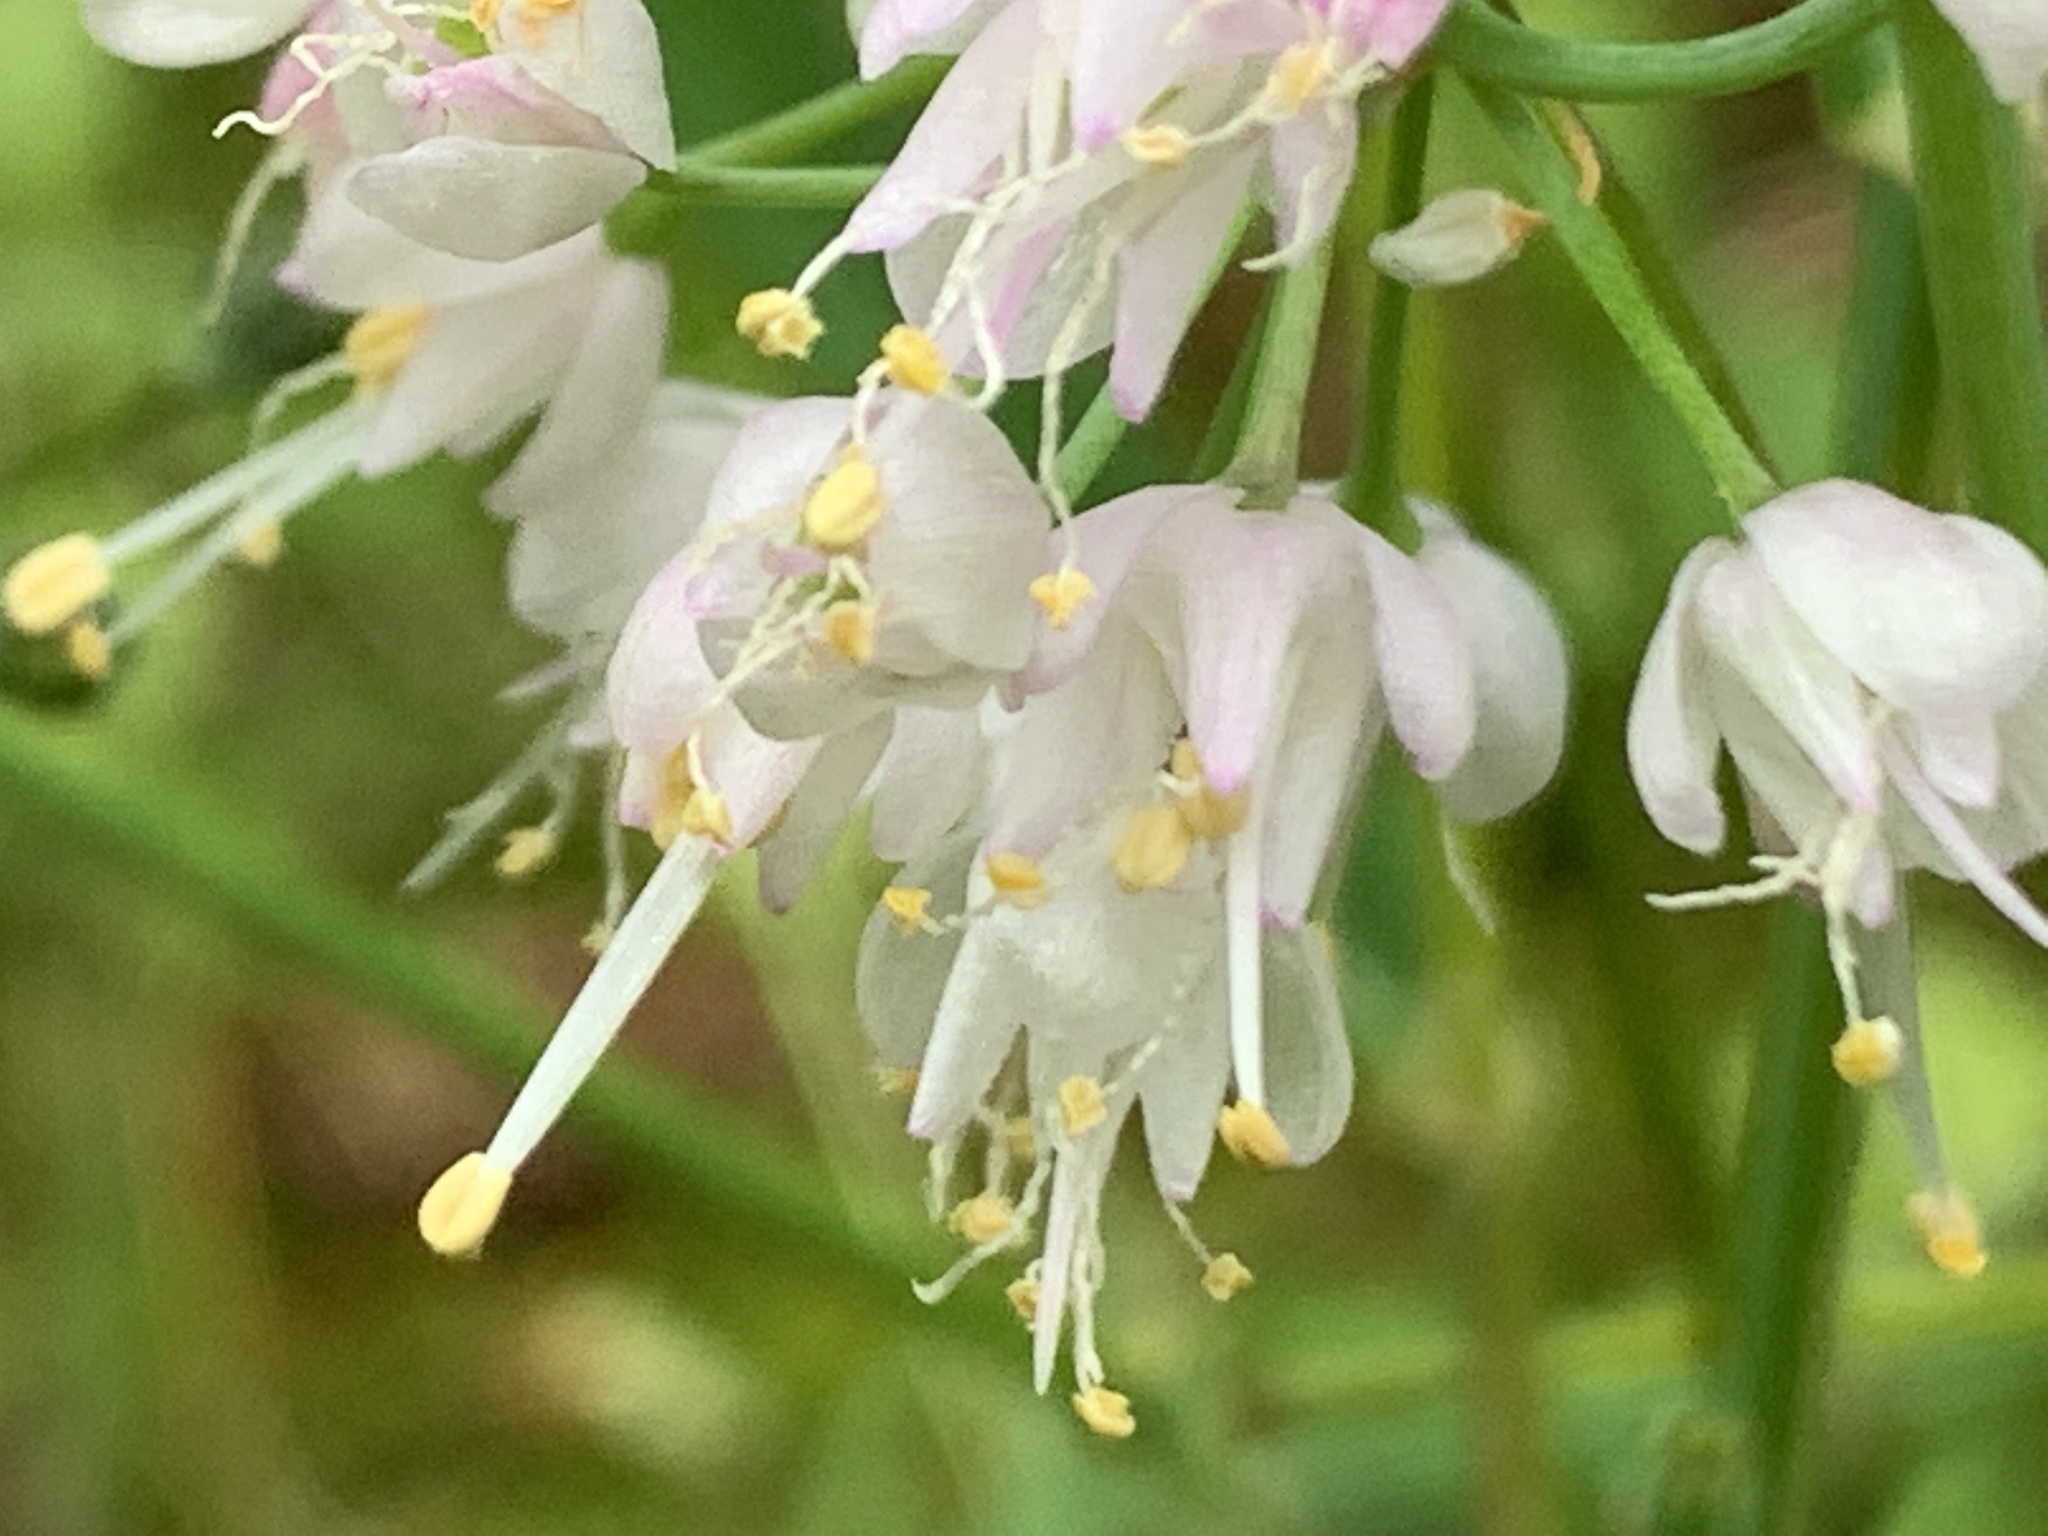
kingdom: Plantae
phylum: Tracheophyta
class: Liliopsida
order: Asparagales
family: Amaryllidaceae
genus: Allium
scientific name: Allium cernuum
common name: Nodding onion
